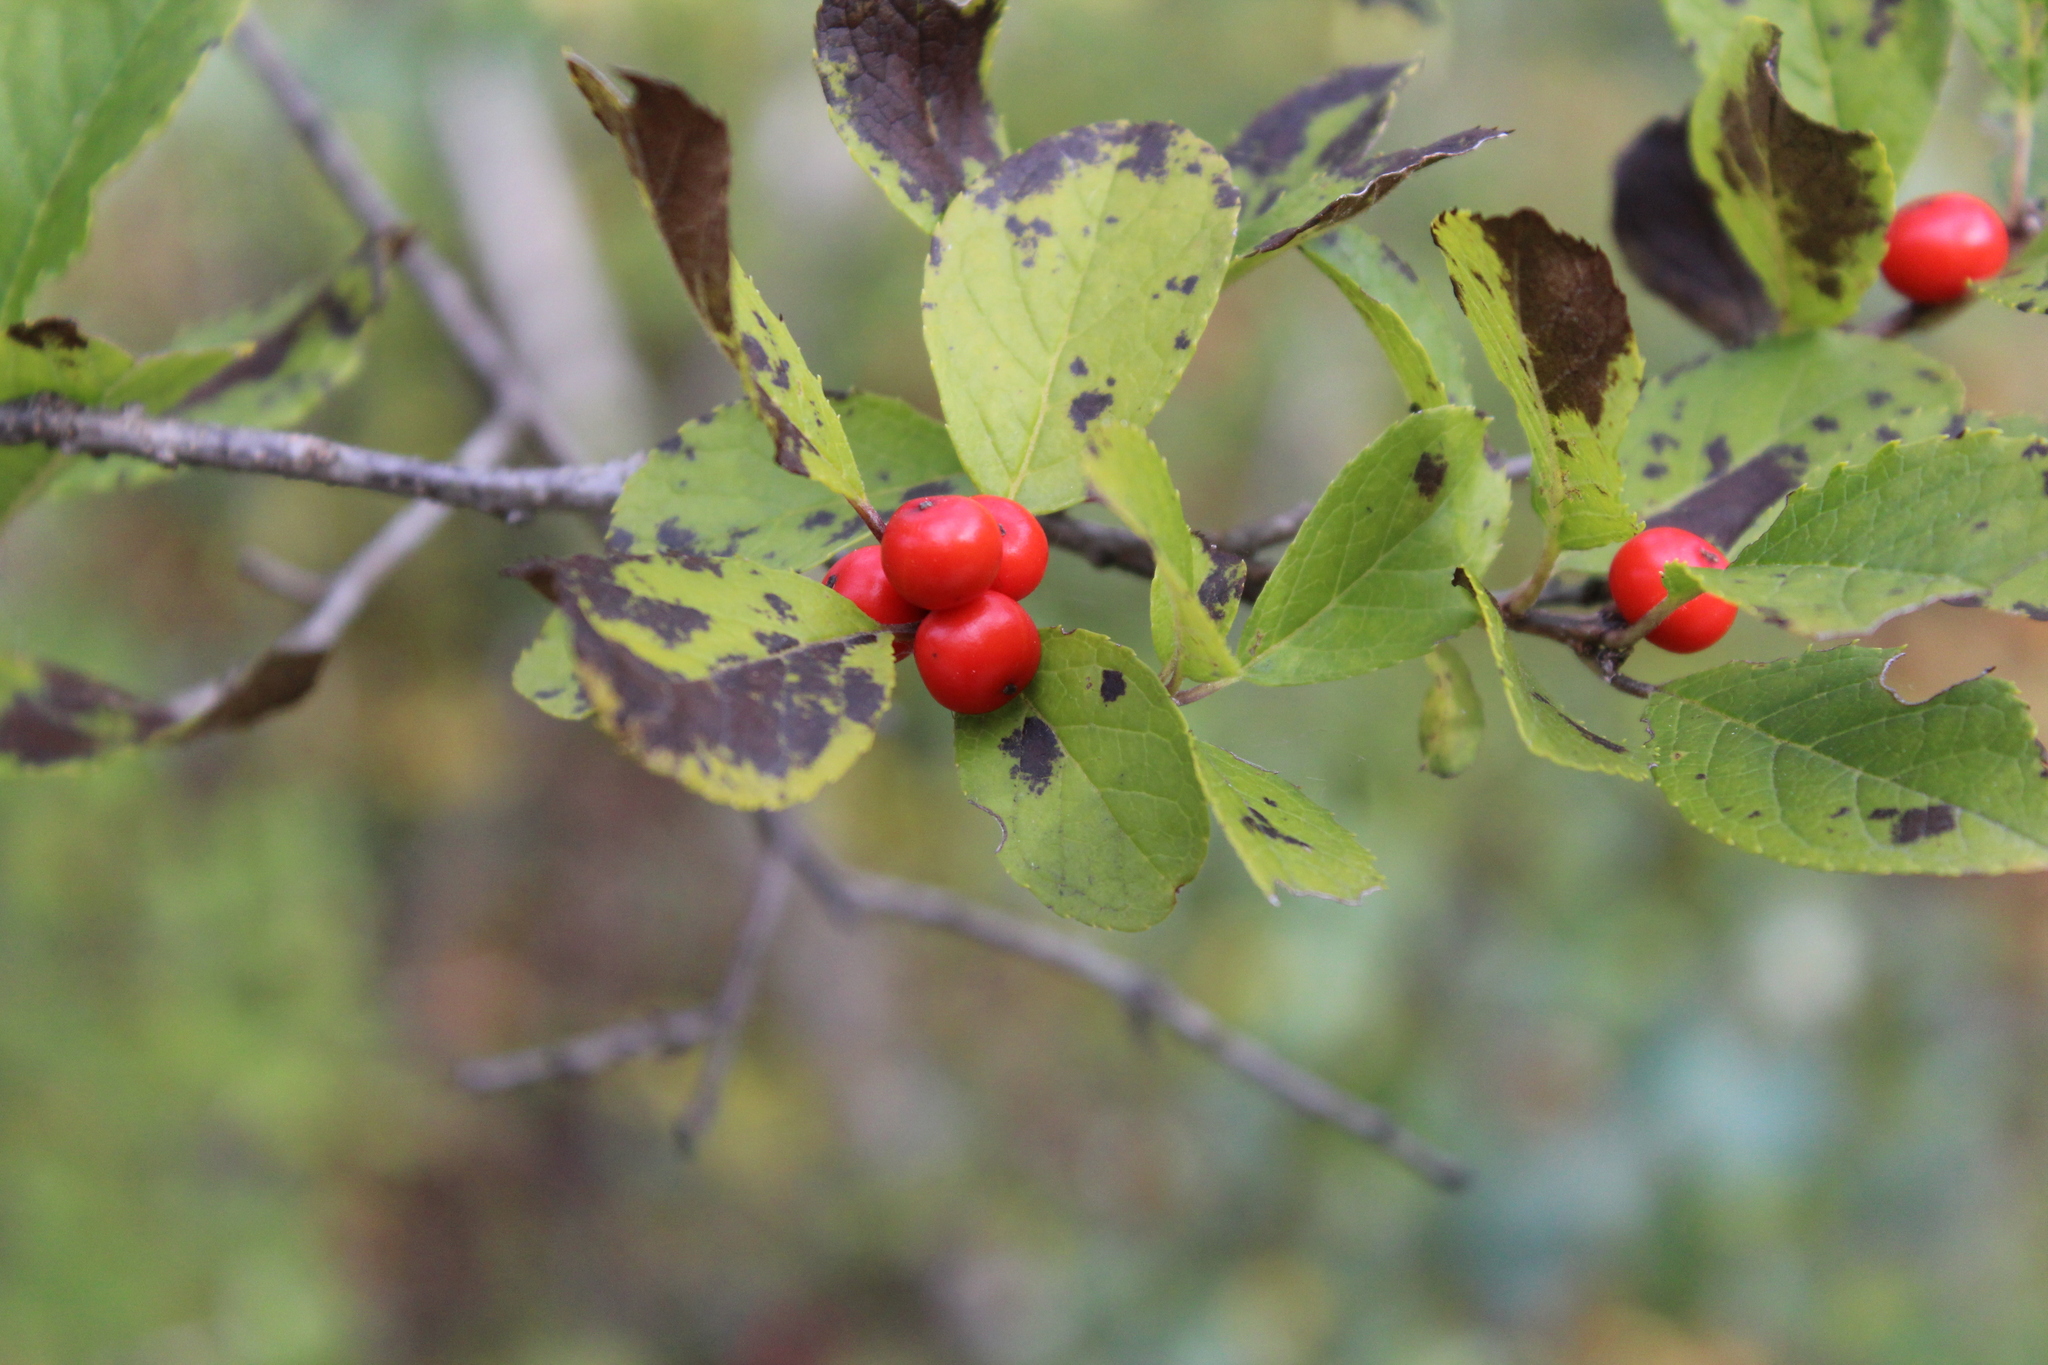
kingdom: Plantae
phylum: Tracheophyta
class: Magnoliopsida
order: Aquifoliales
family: Aquifoliaceae
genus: Ilex
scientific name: Ilex verticillata
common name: Virginia winterberry
